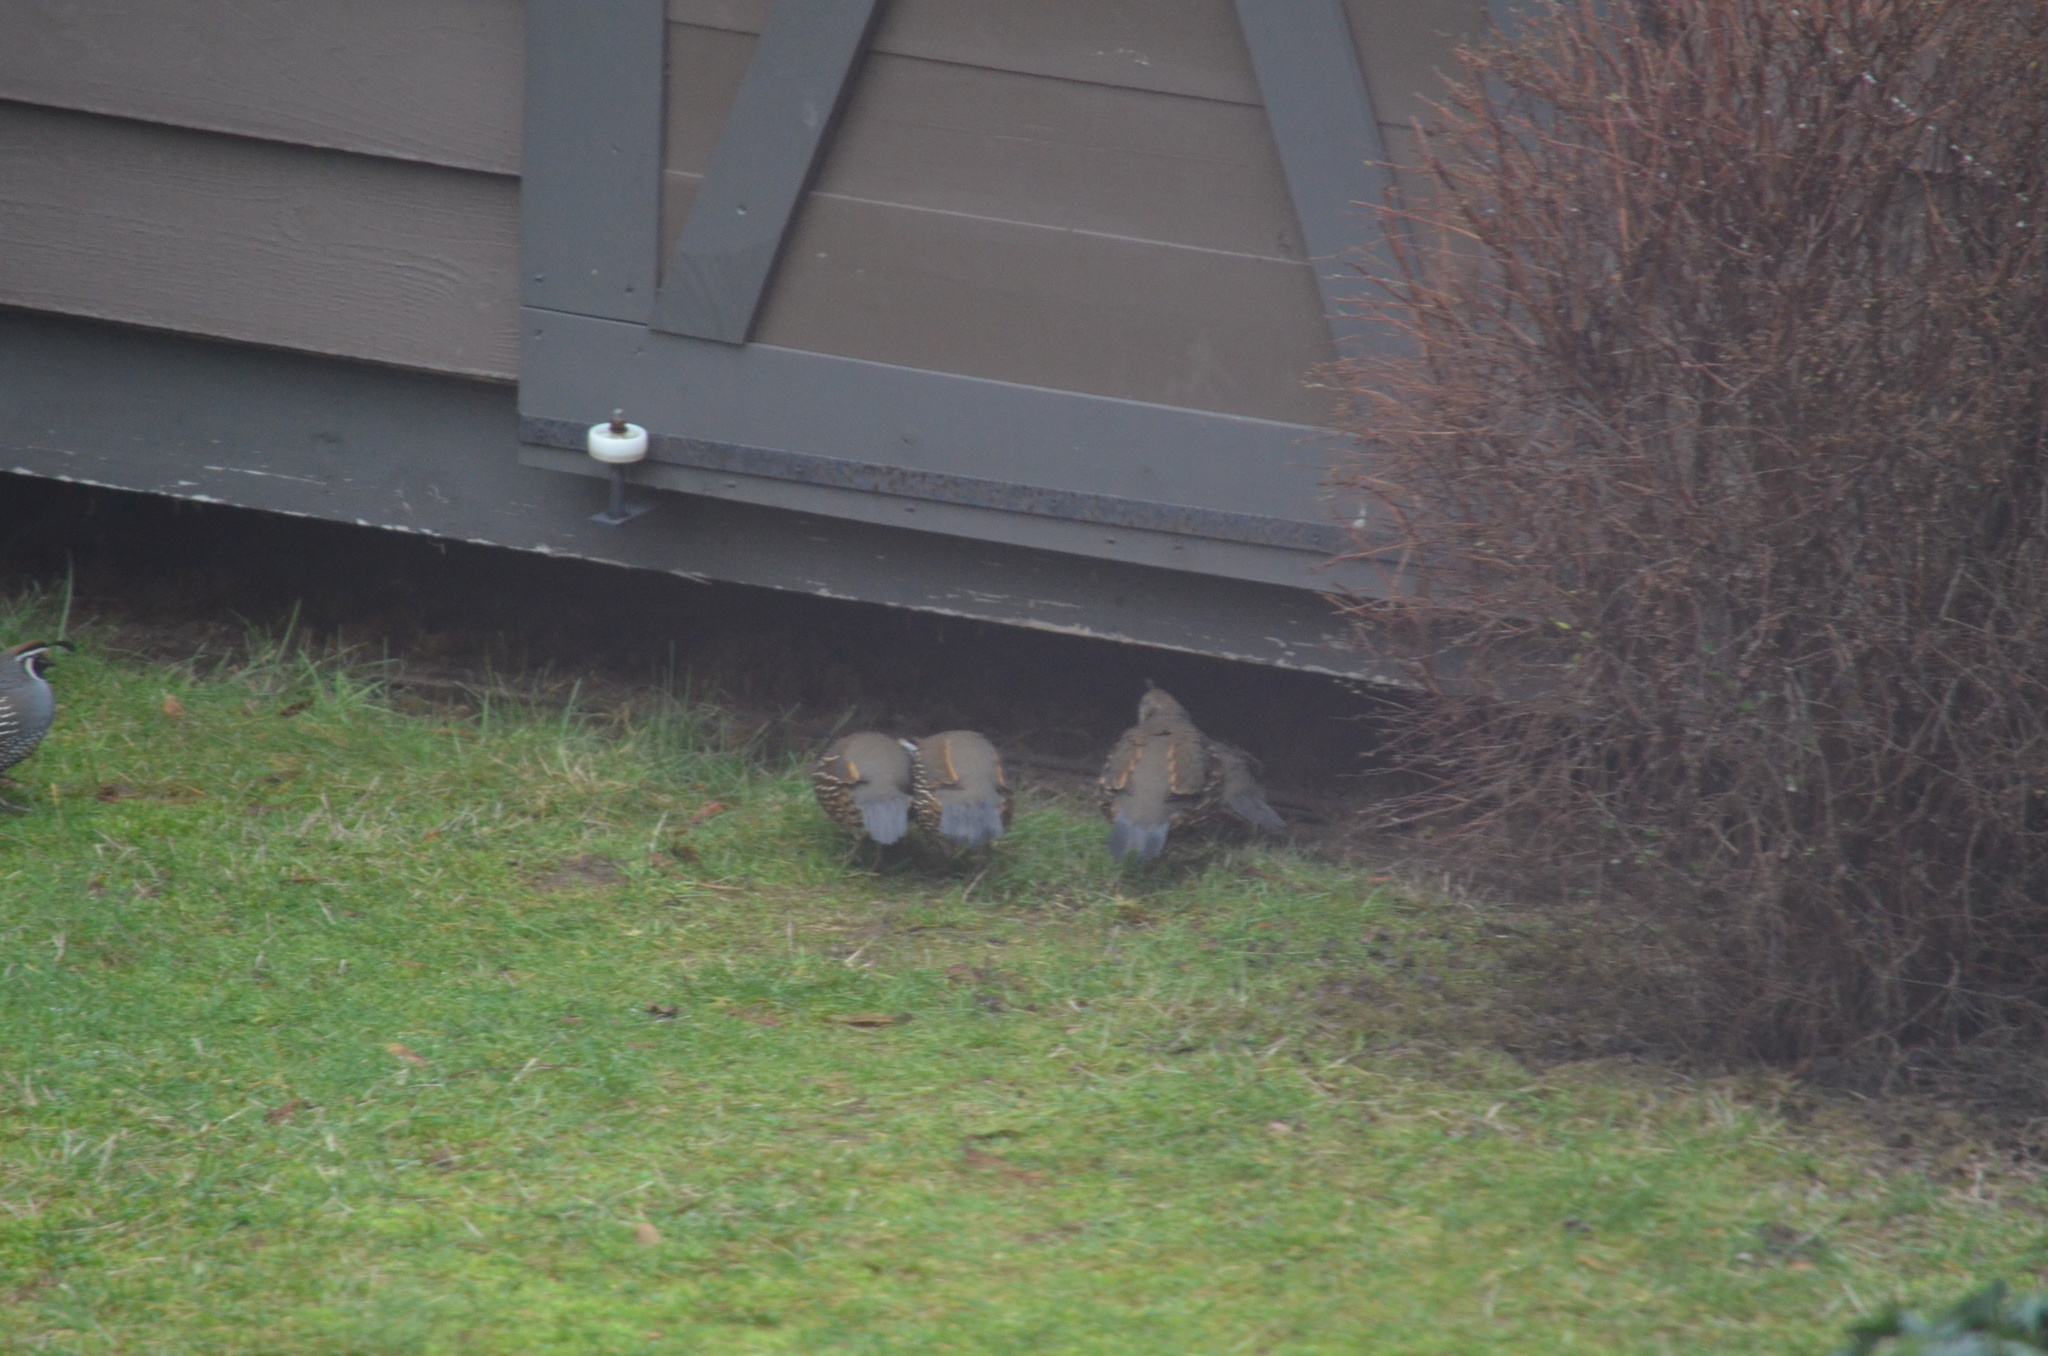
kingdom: Animalia
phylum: Chordata
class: Aves
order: Galliformes
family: Odontophoridae
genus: Callipepla
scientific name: Callipepla californica
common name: California quail
